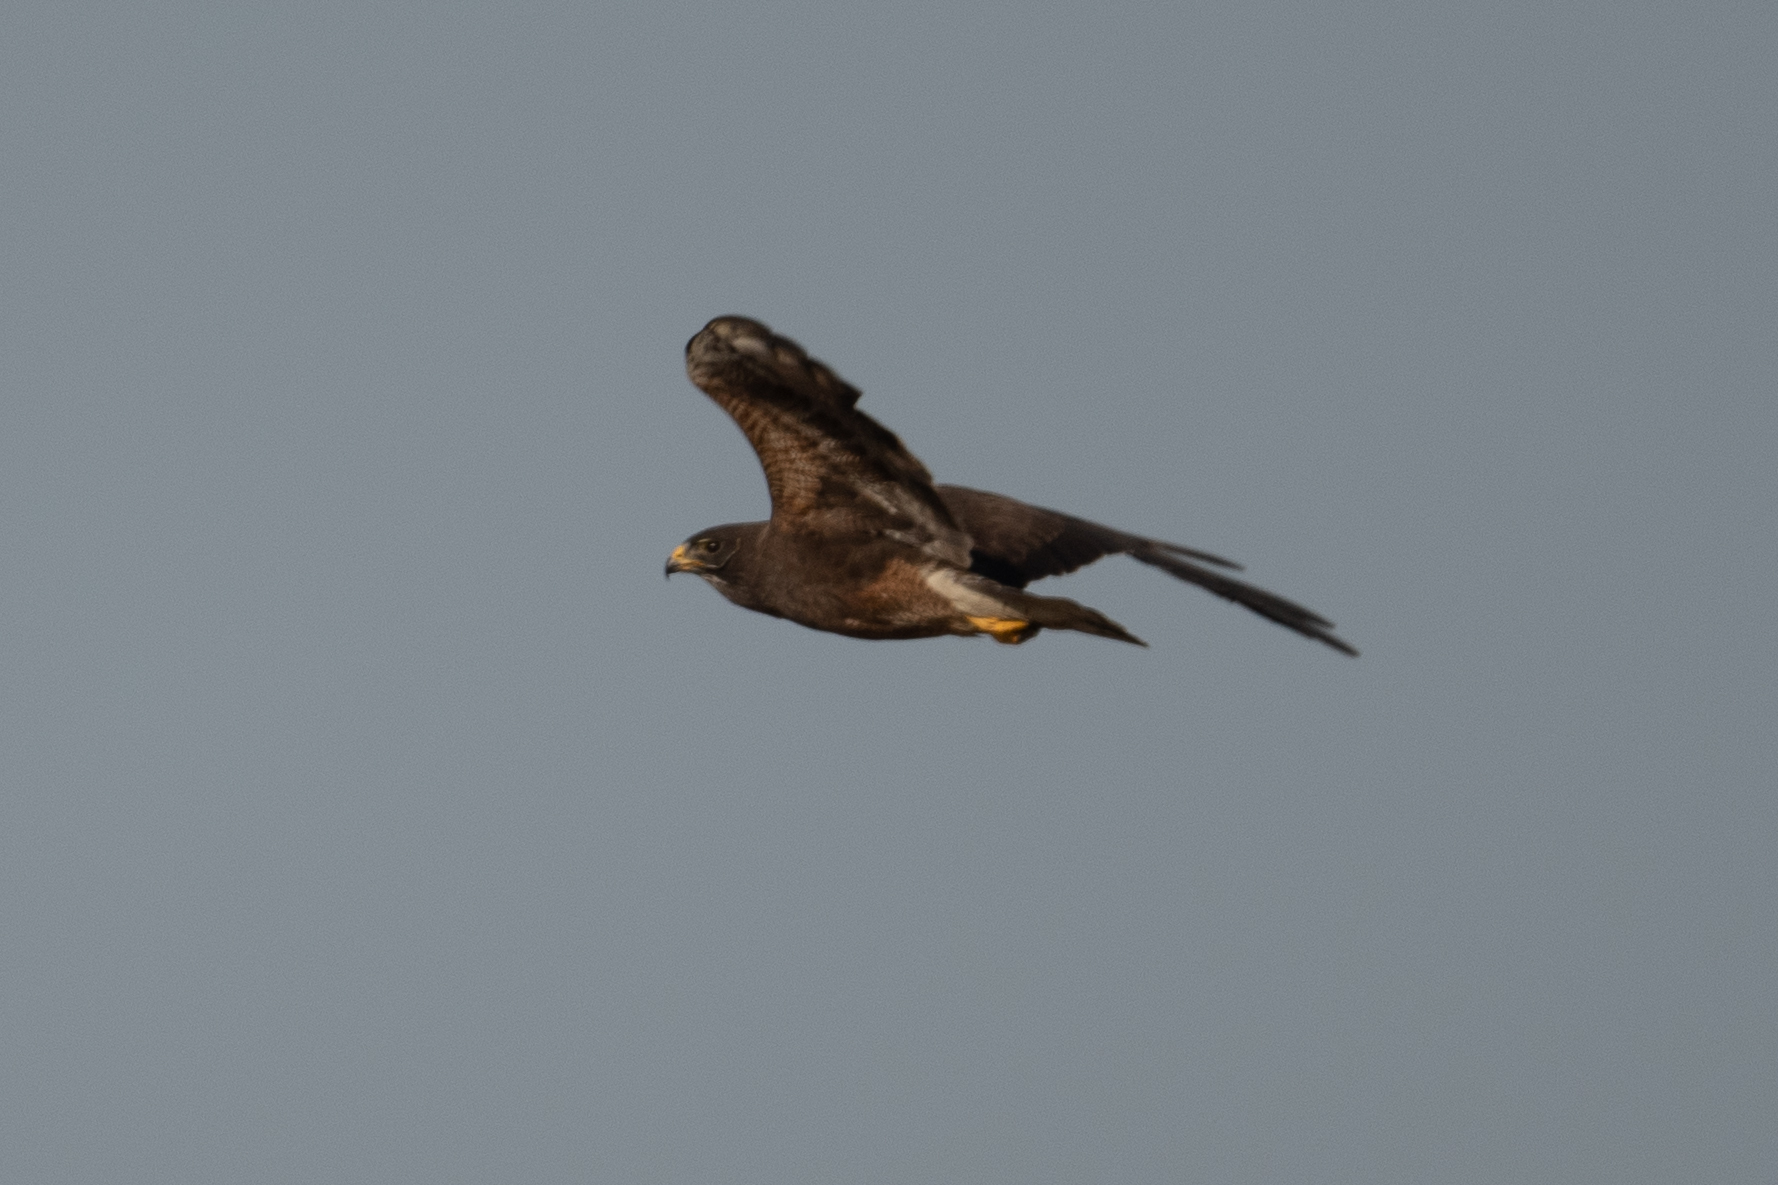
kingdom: Animalia
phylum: Chordata
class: Aves
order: Accipitriformes
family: Accipitridae
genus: Buteo
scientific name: Buteo swainsoni
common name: Swainson's hawk
